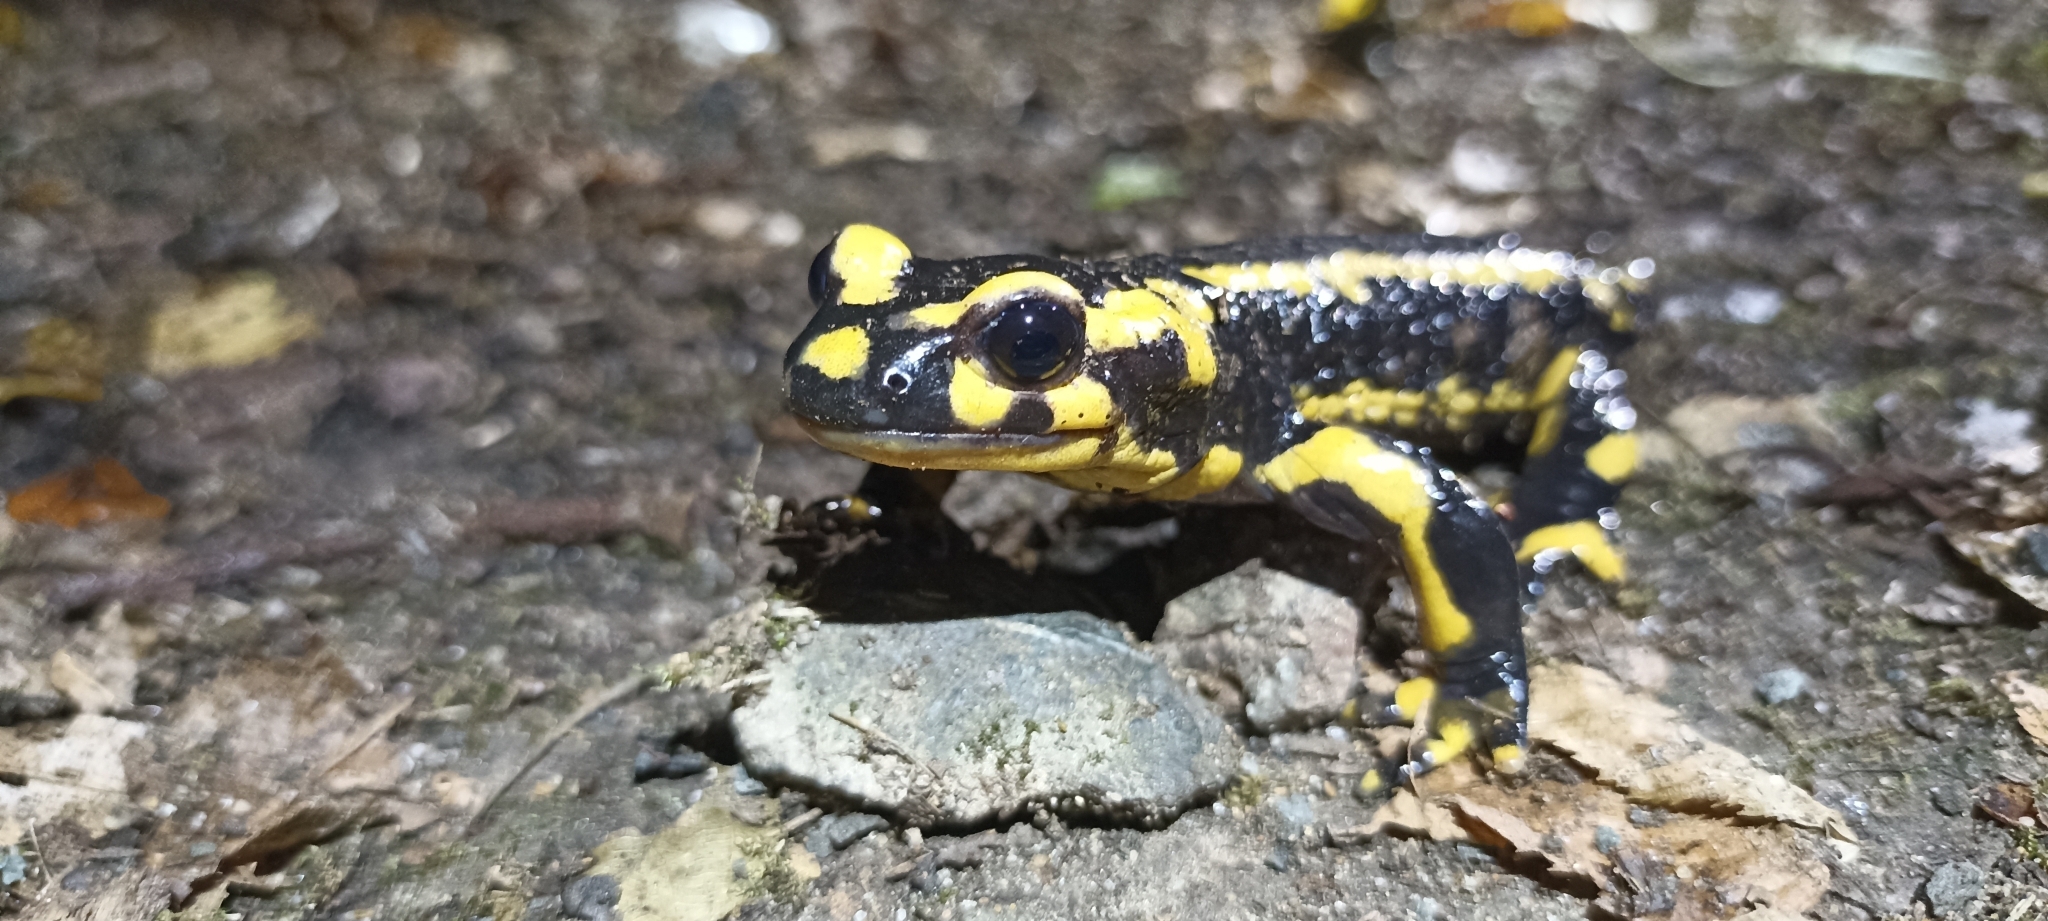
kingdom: Animalia
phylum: Chordata
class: Amphibia
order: Caudata
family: Salamandridae
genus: Salamandra
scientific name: Salamandra salamandra
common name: Fire salamander
